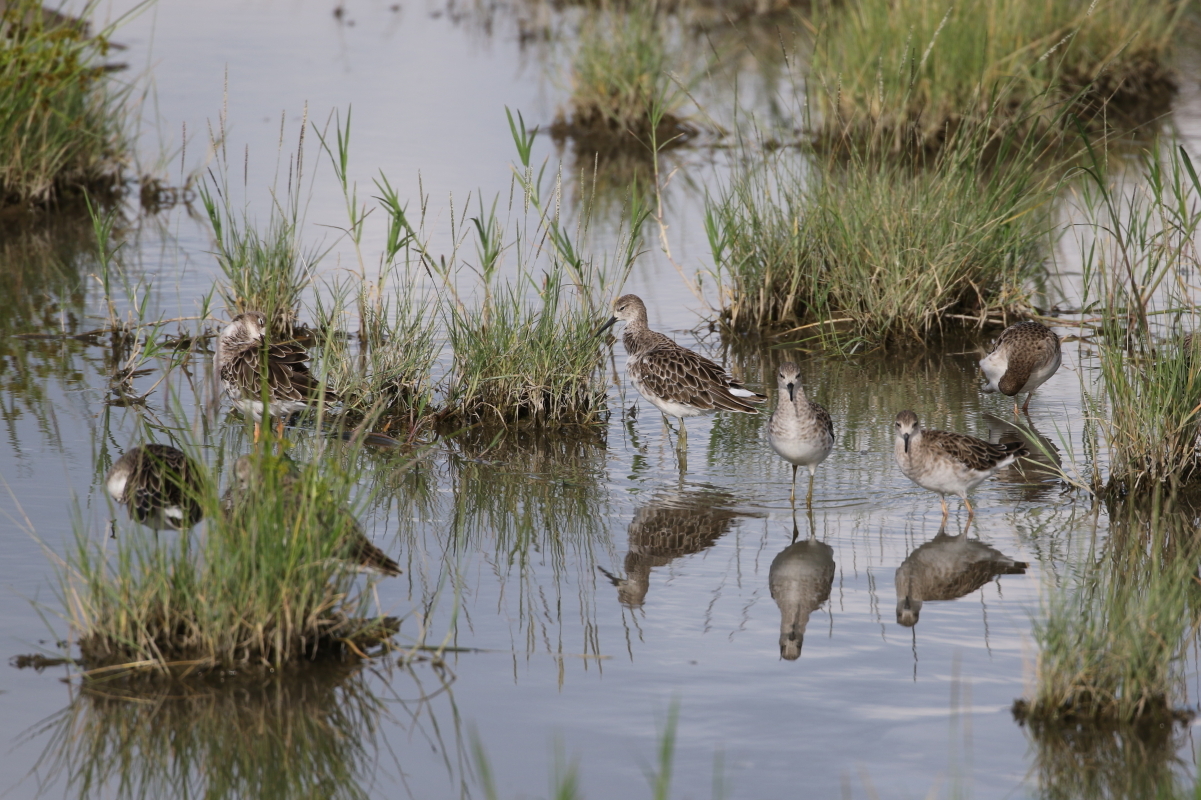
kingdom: Animalia
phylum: Chordata
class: Aves
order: Charadriiformes
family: Scolopacidae
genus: Calidris
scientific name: Calidris pugnax
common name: Ruff
